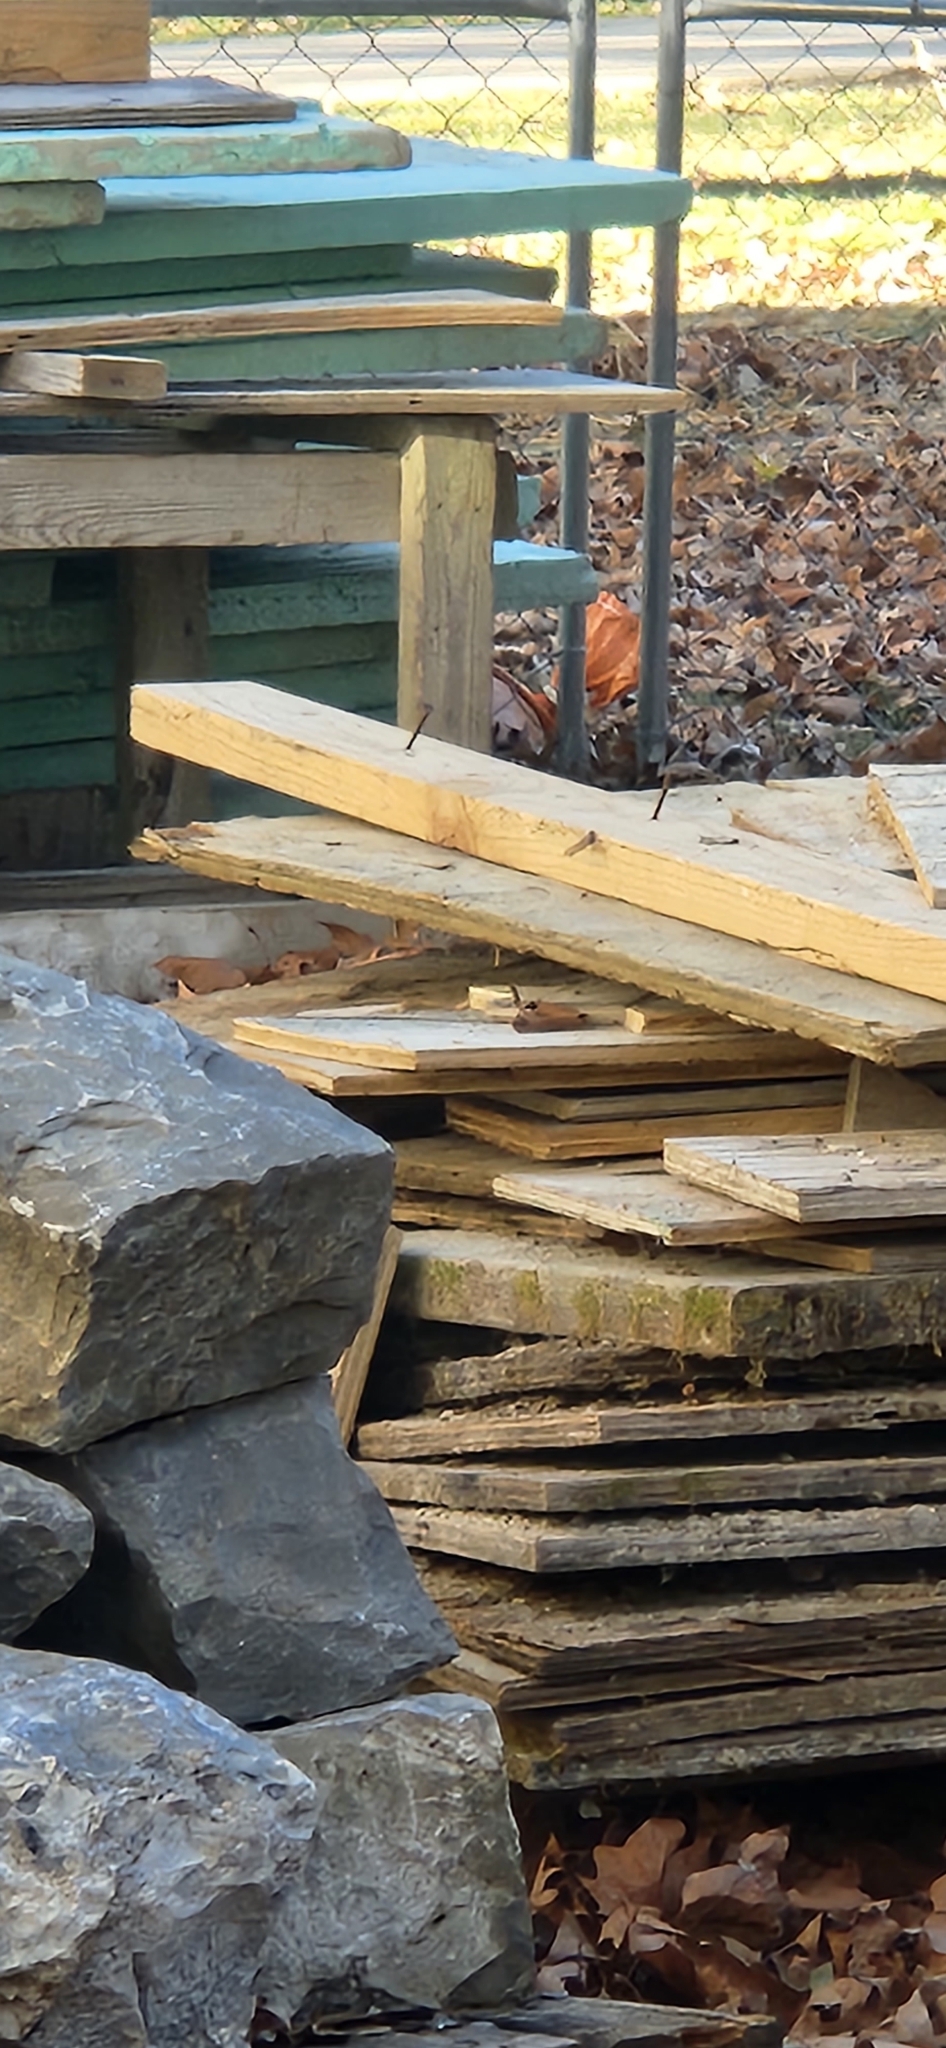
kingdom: Animalia
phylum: Chordata
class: Aves
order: Passeriformes
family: Troglodytidae
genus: Thryothorus
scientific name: Thryothorus ludovicianus
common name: Carolina wren
